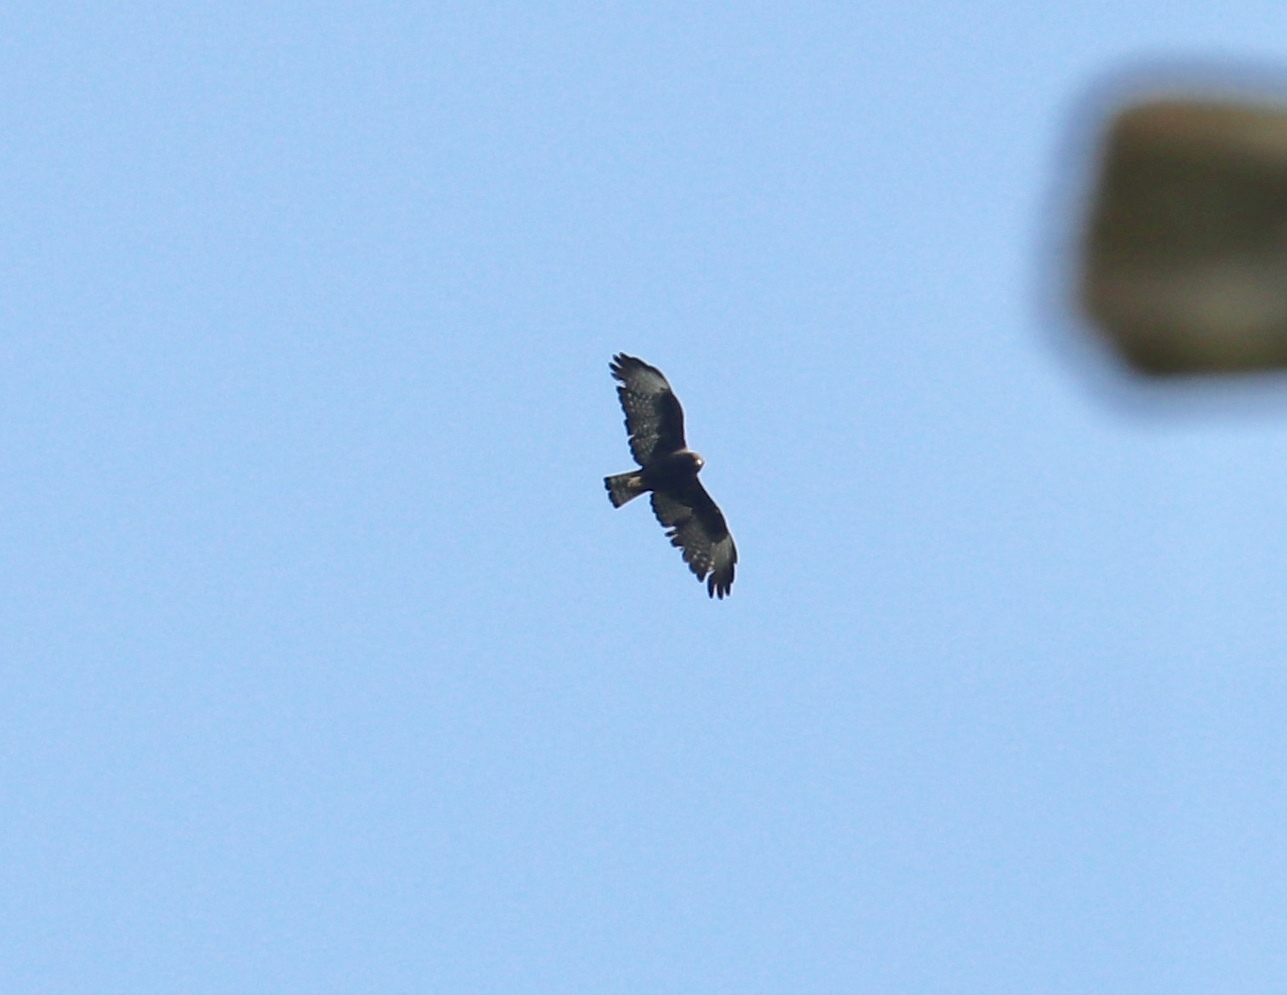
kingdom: Animalia
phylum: Chordata
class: Aves
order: Accipitriformes
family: Accipitridae
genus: Buteo
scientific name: Buteo brachyurus
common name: Short-tailed hawk
